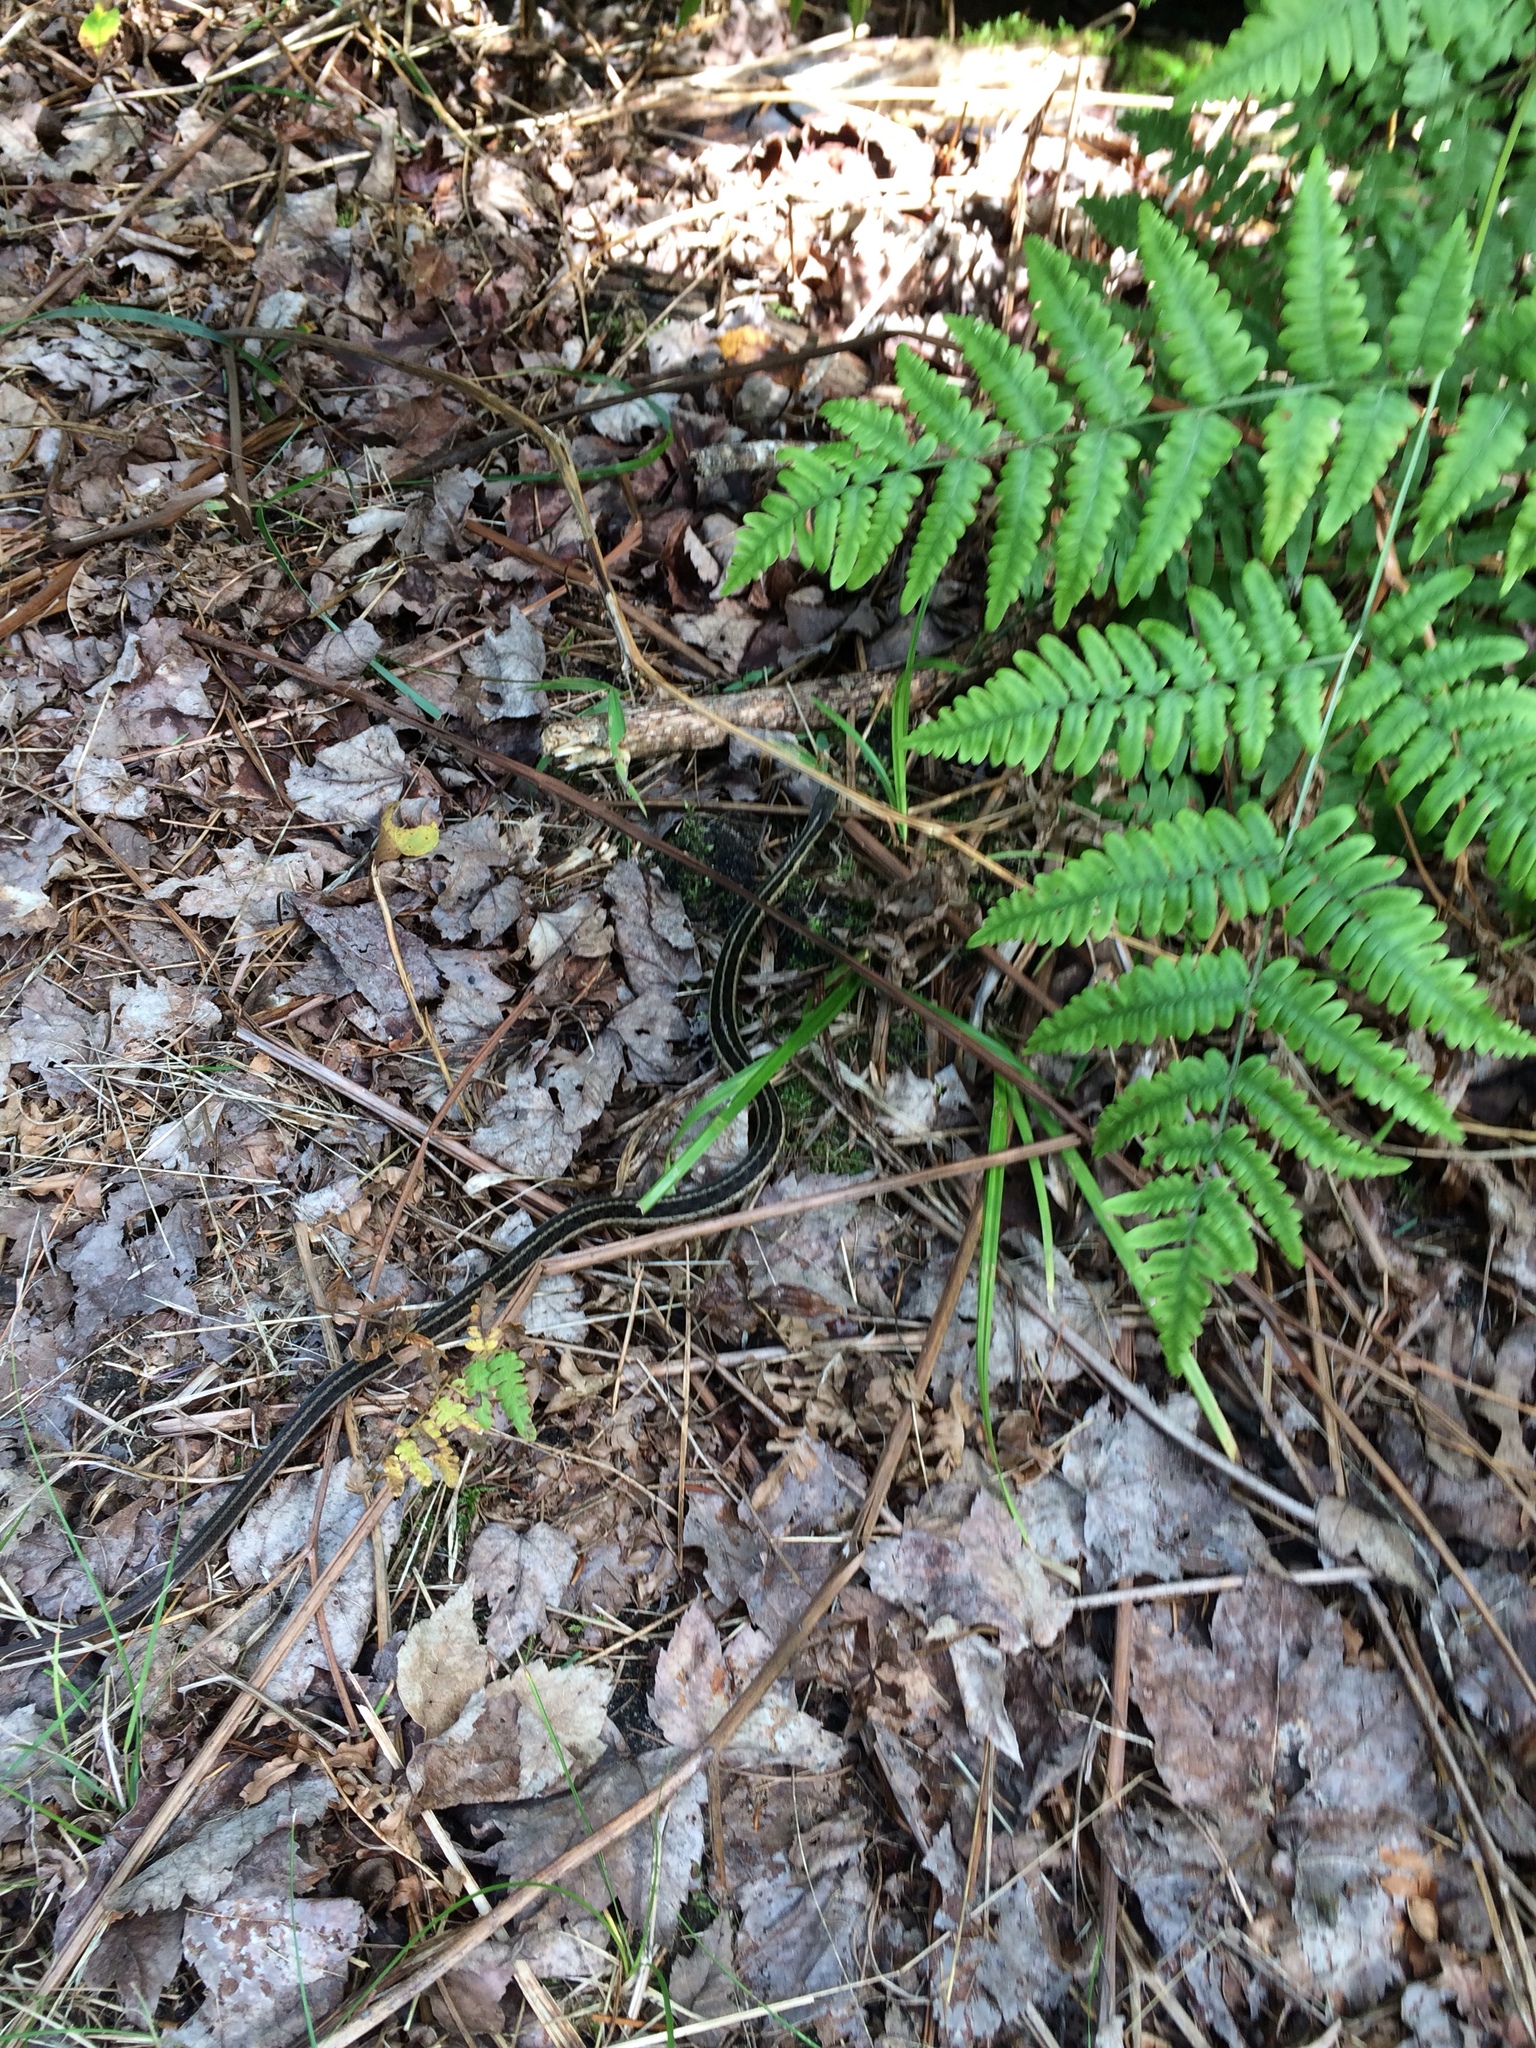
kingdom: Animalia
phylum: Chordata
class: Squamata
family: Colubridae
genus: Thamnophis
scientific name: Thamnophis sirtalis
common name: Common garter snake
